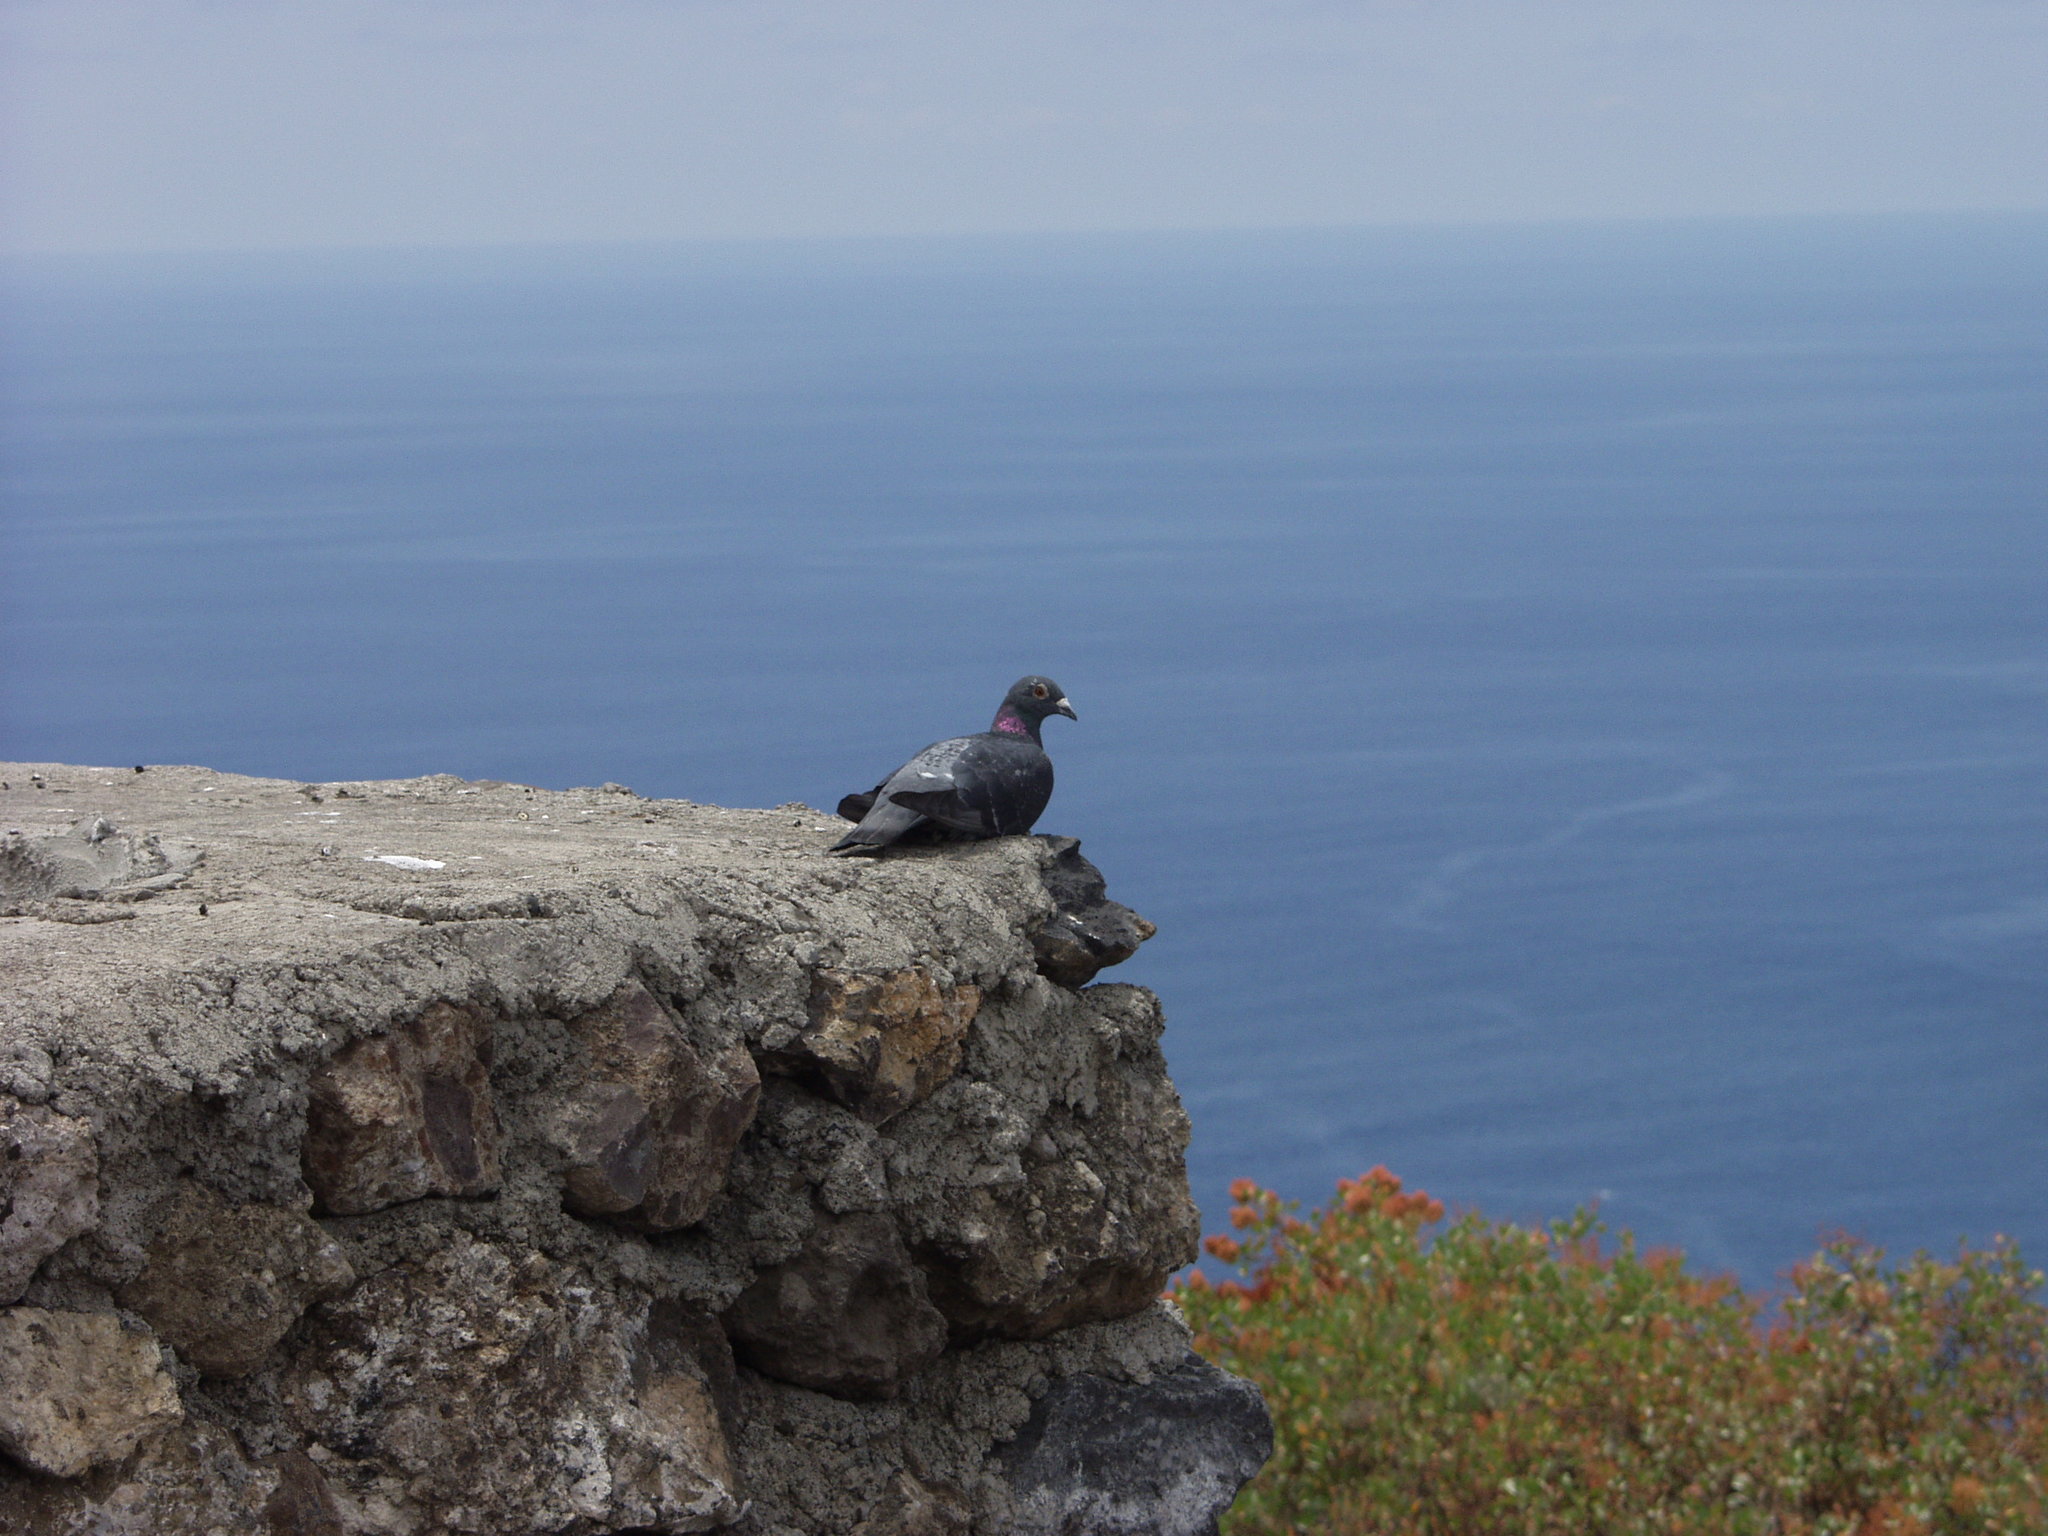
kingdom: Animalia
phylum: Chordata
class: Aves
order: Columbiformes
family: Columbidae
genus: Columba
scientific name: Columba livia
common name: Rock pigeon
